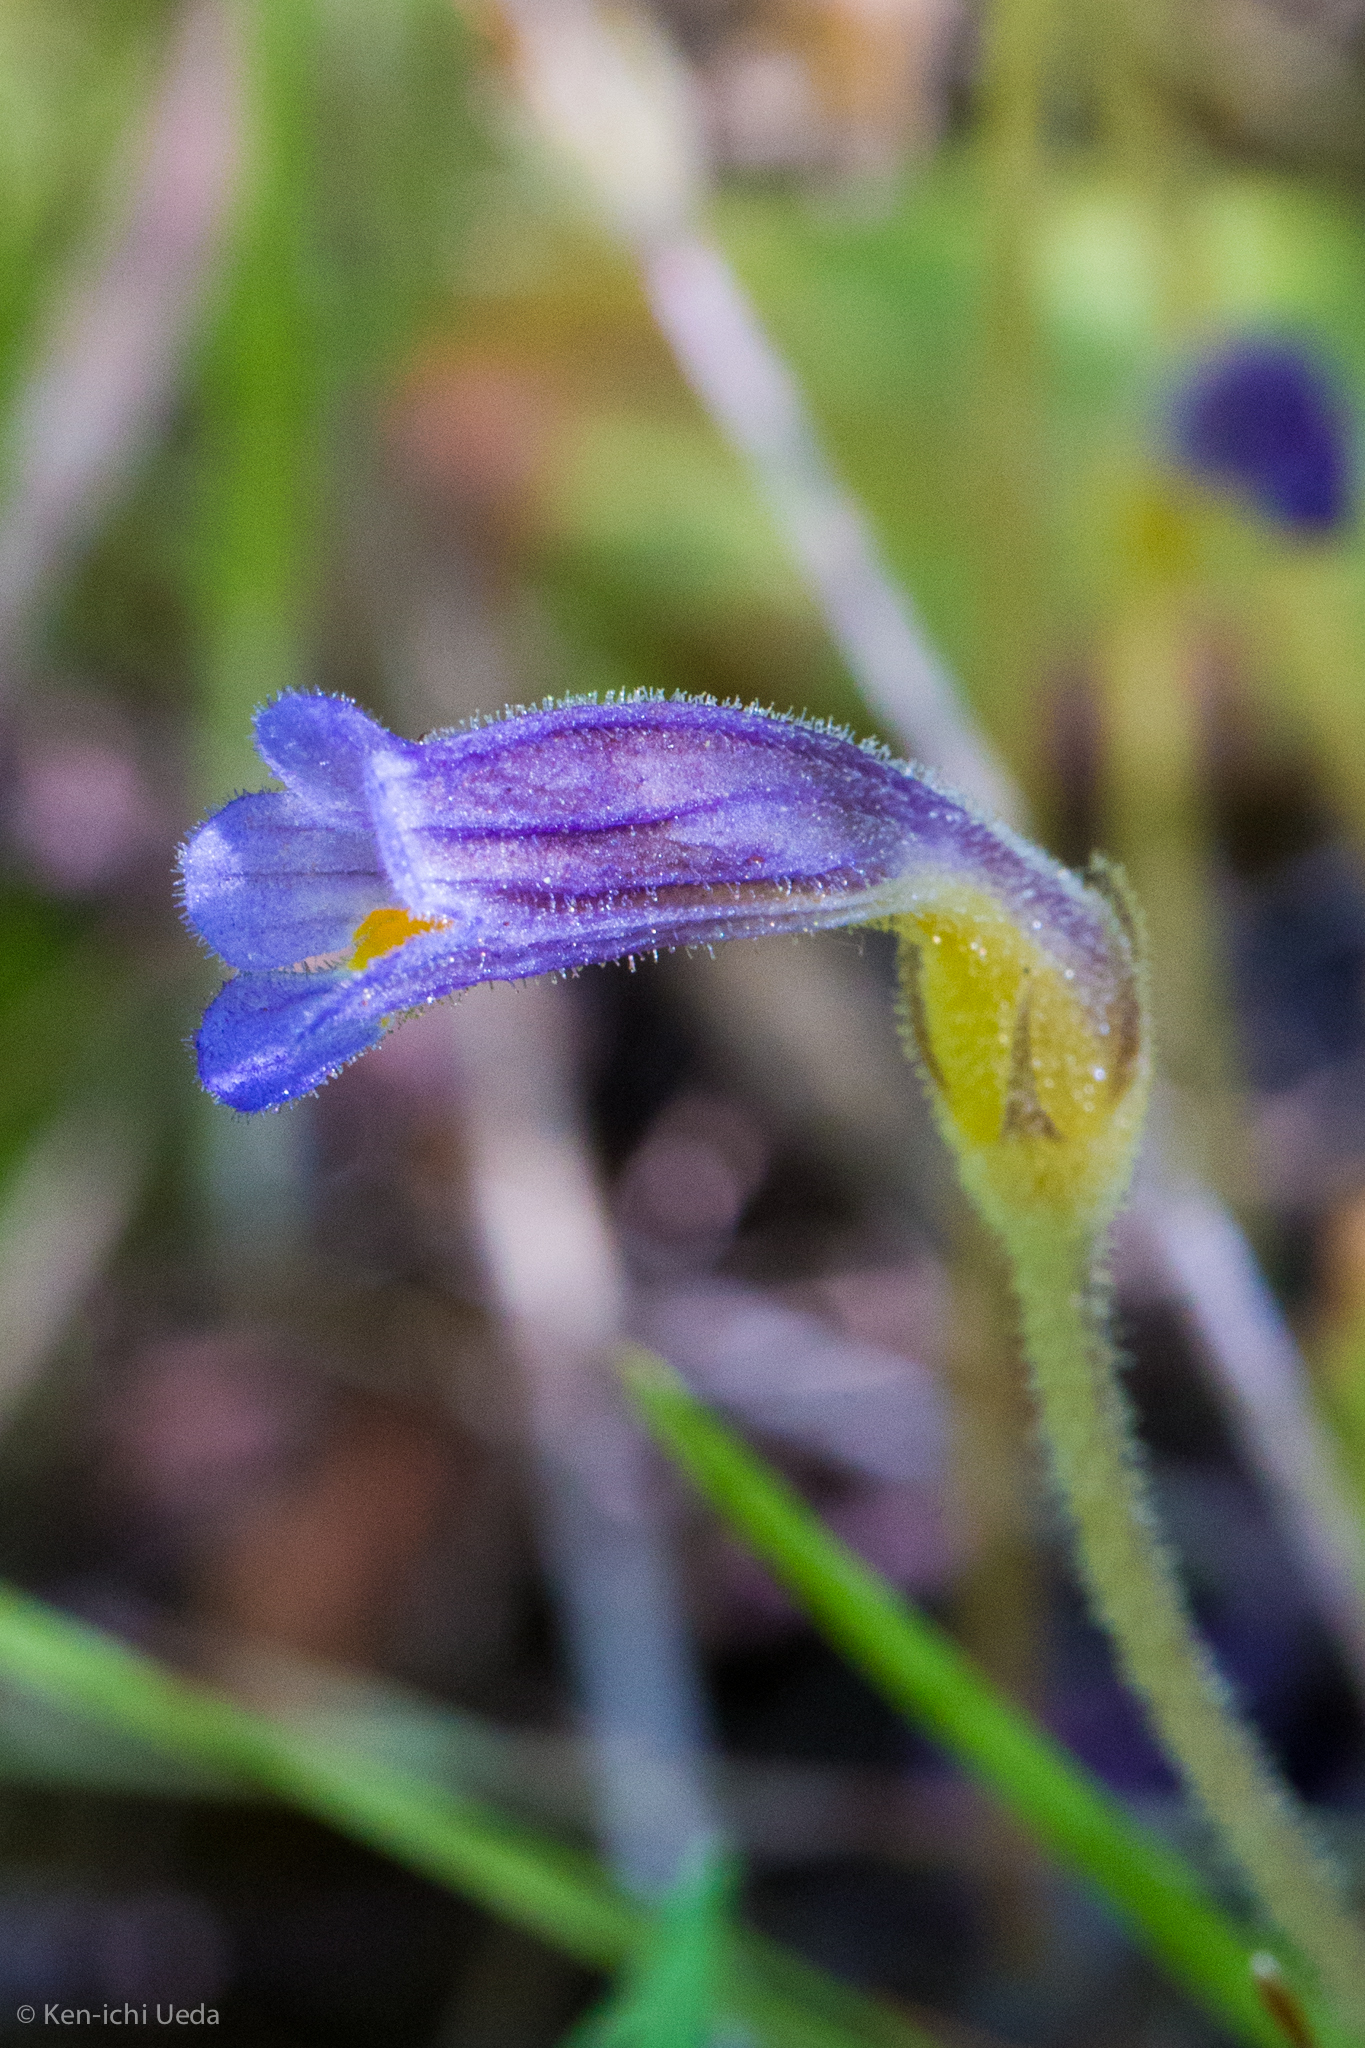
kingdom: Plantae
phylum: Tracheophyta
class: Magnoliopsida
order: Lamiales
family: Orobanchaceae
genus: Aphyllon
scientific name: Aphyllon uniflorum
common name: One-flowered broomrape
